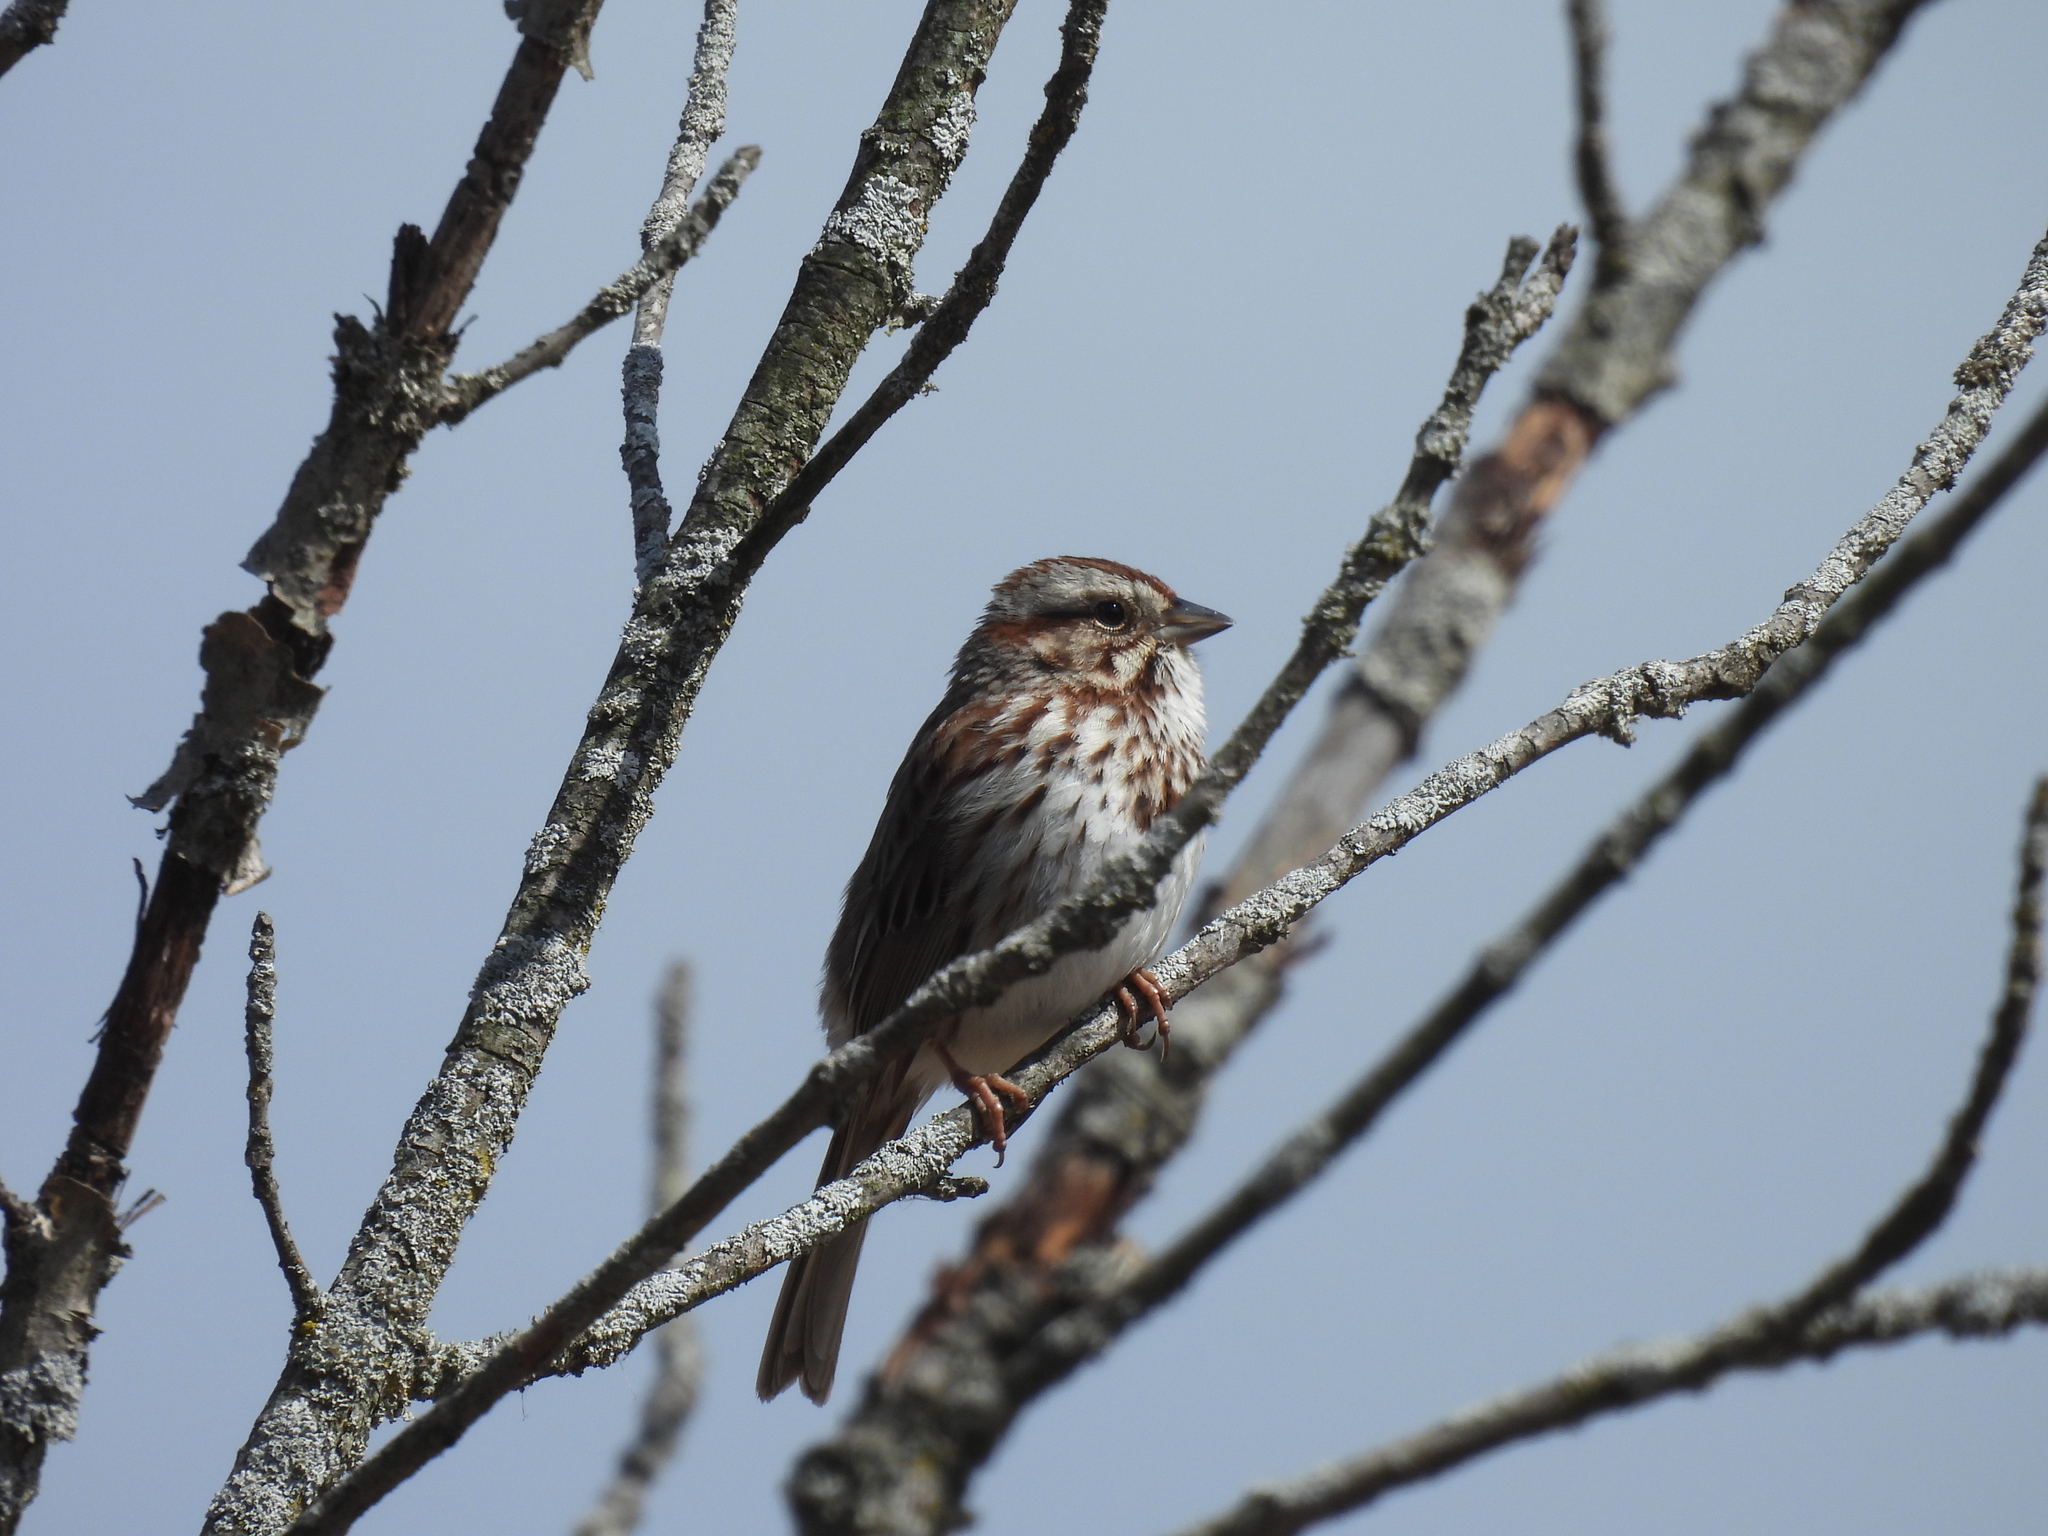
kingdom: Animalia
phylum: Chordata
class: Aves
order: Passeriformes
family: Passerellidae
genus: Melospiza
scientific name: Melospiza melodia
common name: Song sparrow
